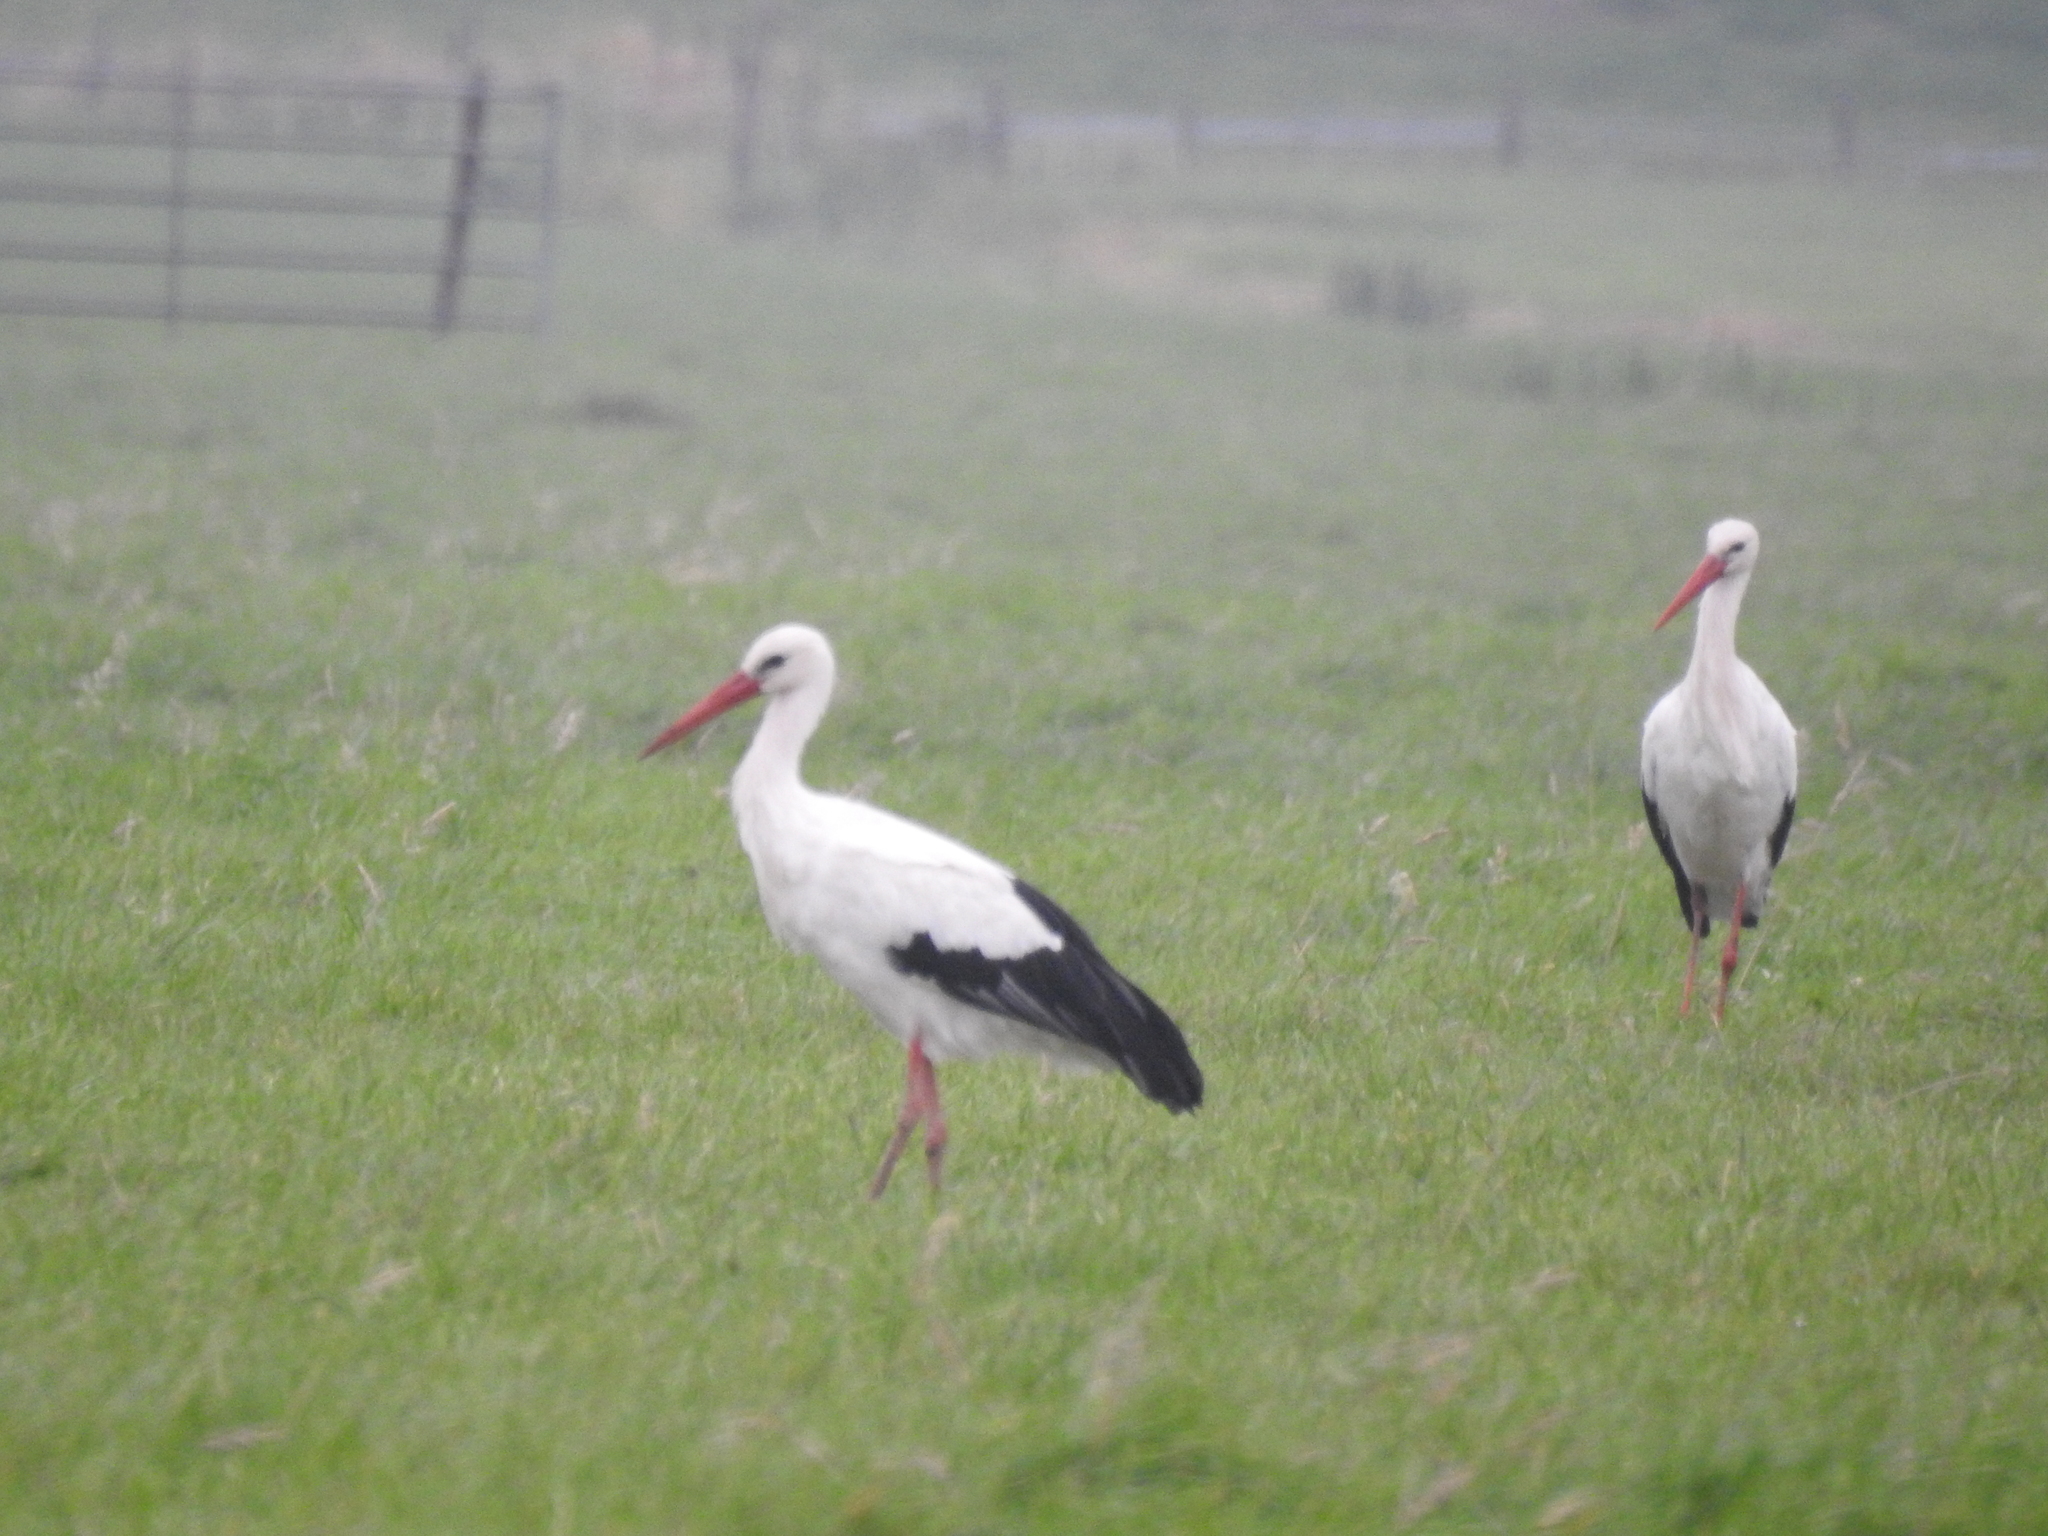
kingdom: Animalia
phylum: Chordata
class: Aves
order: Ciconiiformes
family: Ciconiidae
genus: Ciconia
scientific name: Ciconia ciconia
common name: White stork
